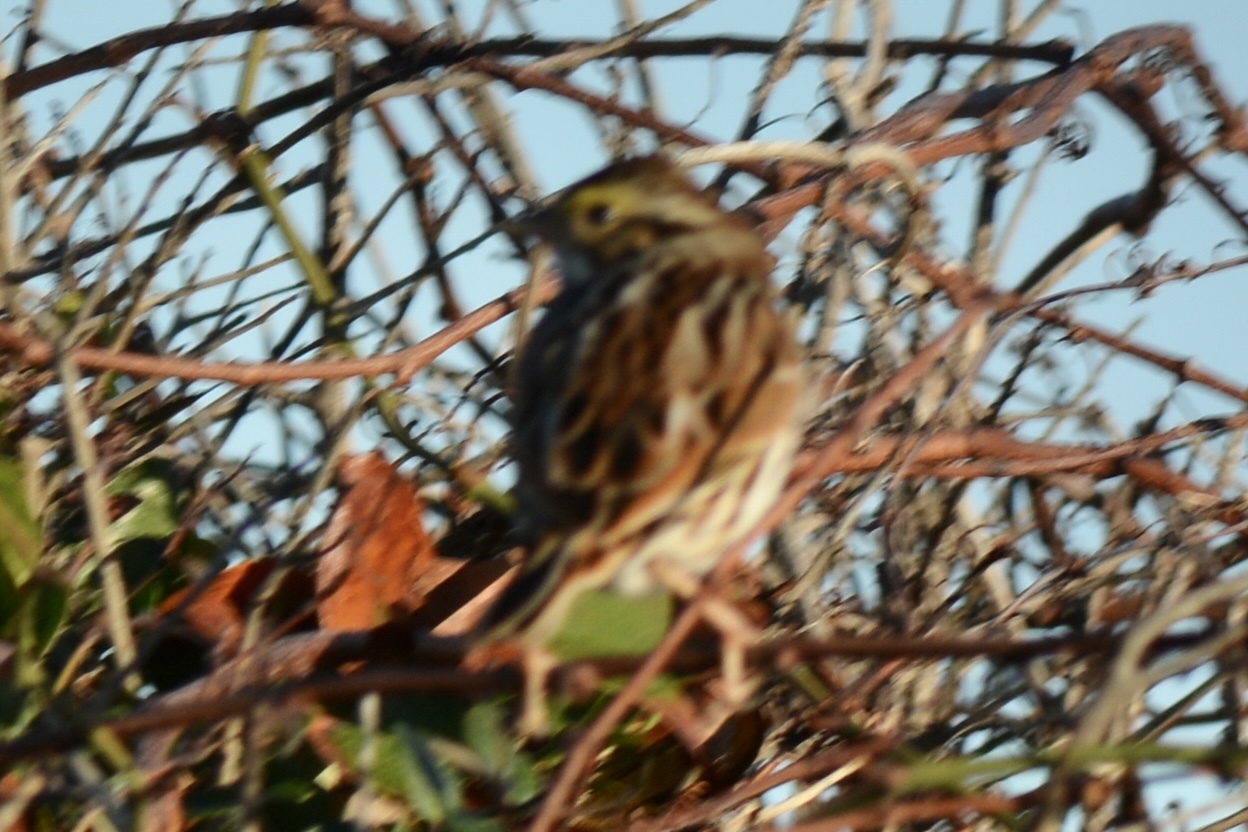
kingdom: Animalia
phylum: Chordata
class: Aves
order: Passeriformes
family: Passerellidae
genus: Passerculus
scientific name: Passerculus sandwichensis
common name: Savannah sparrow
